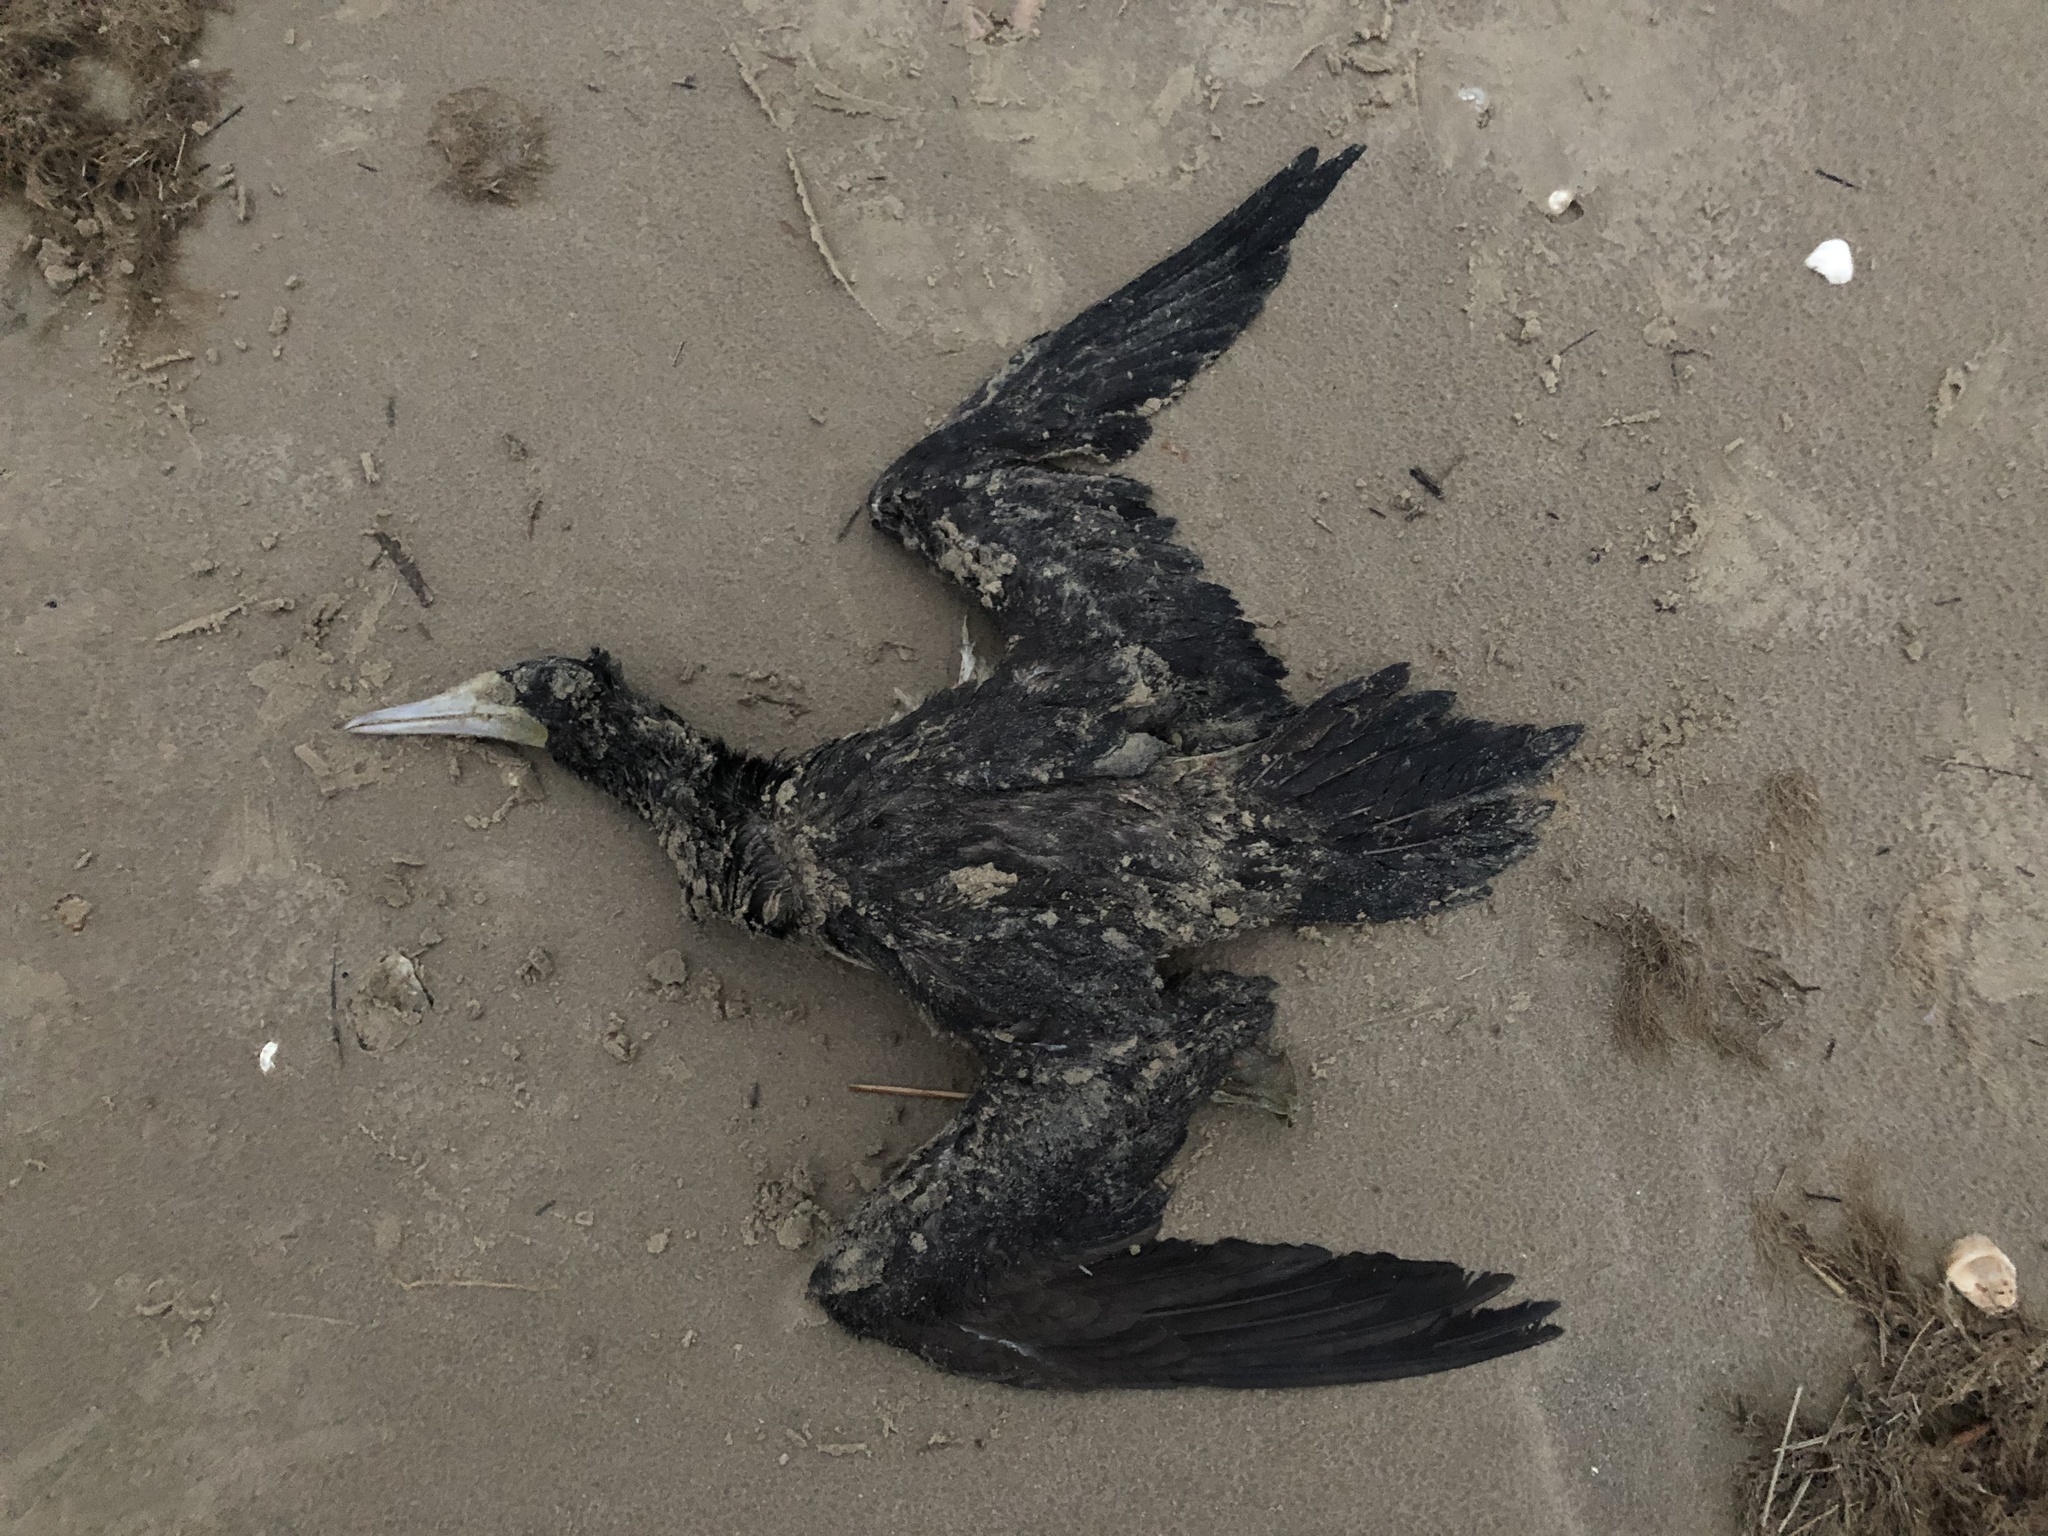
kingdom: Animalia
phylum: Chordata
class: Aves
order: Suliformes
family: Sulidae
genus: Sula
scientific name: Sula leucogaster
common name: Brown booby
